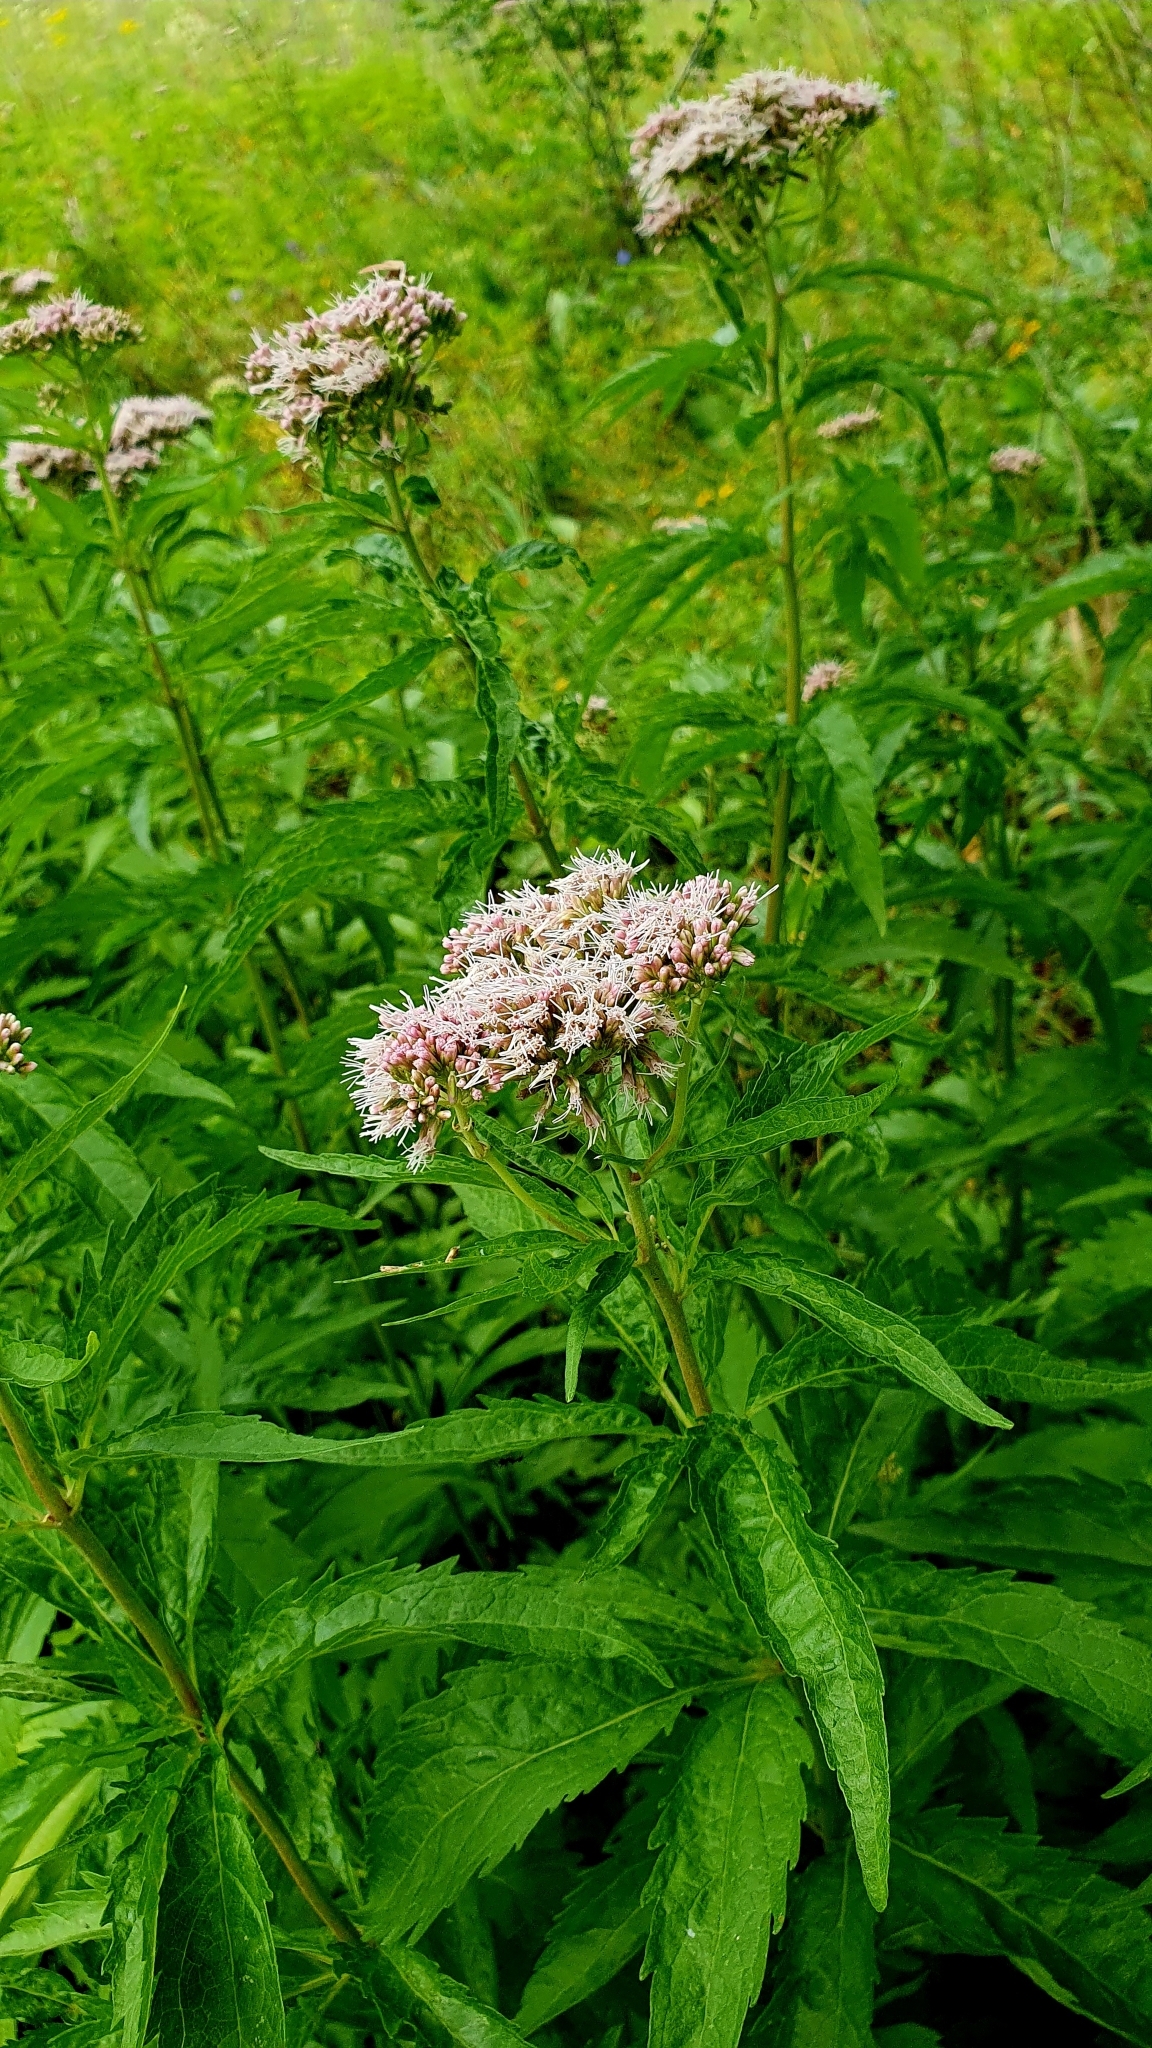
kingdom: Plantae
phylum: Tracheophyta
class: Magnoliopsida
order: Asterales
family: Asteraceae
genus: Eupatorium
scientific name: Eupatorium cannabinum
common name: Hemp-agrimony
